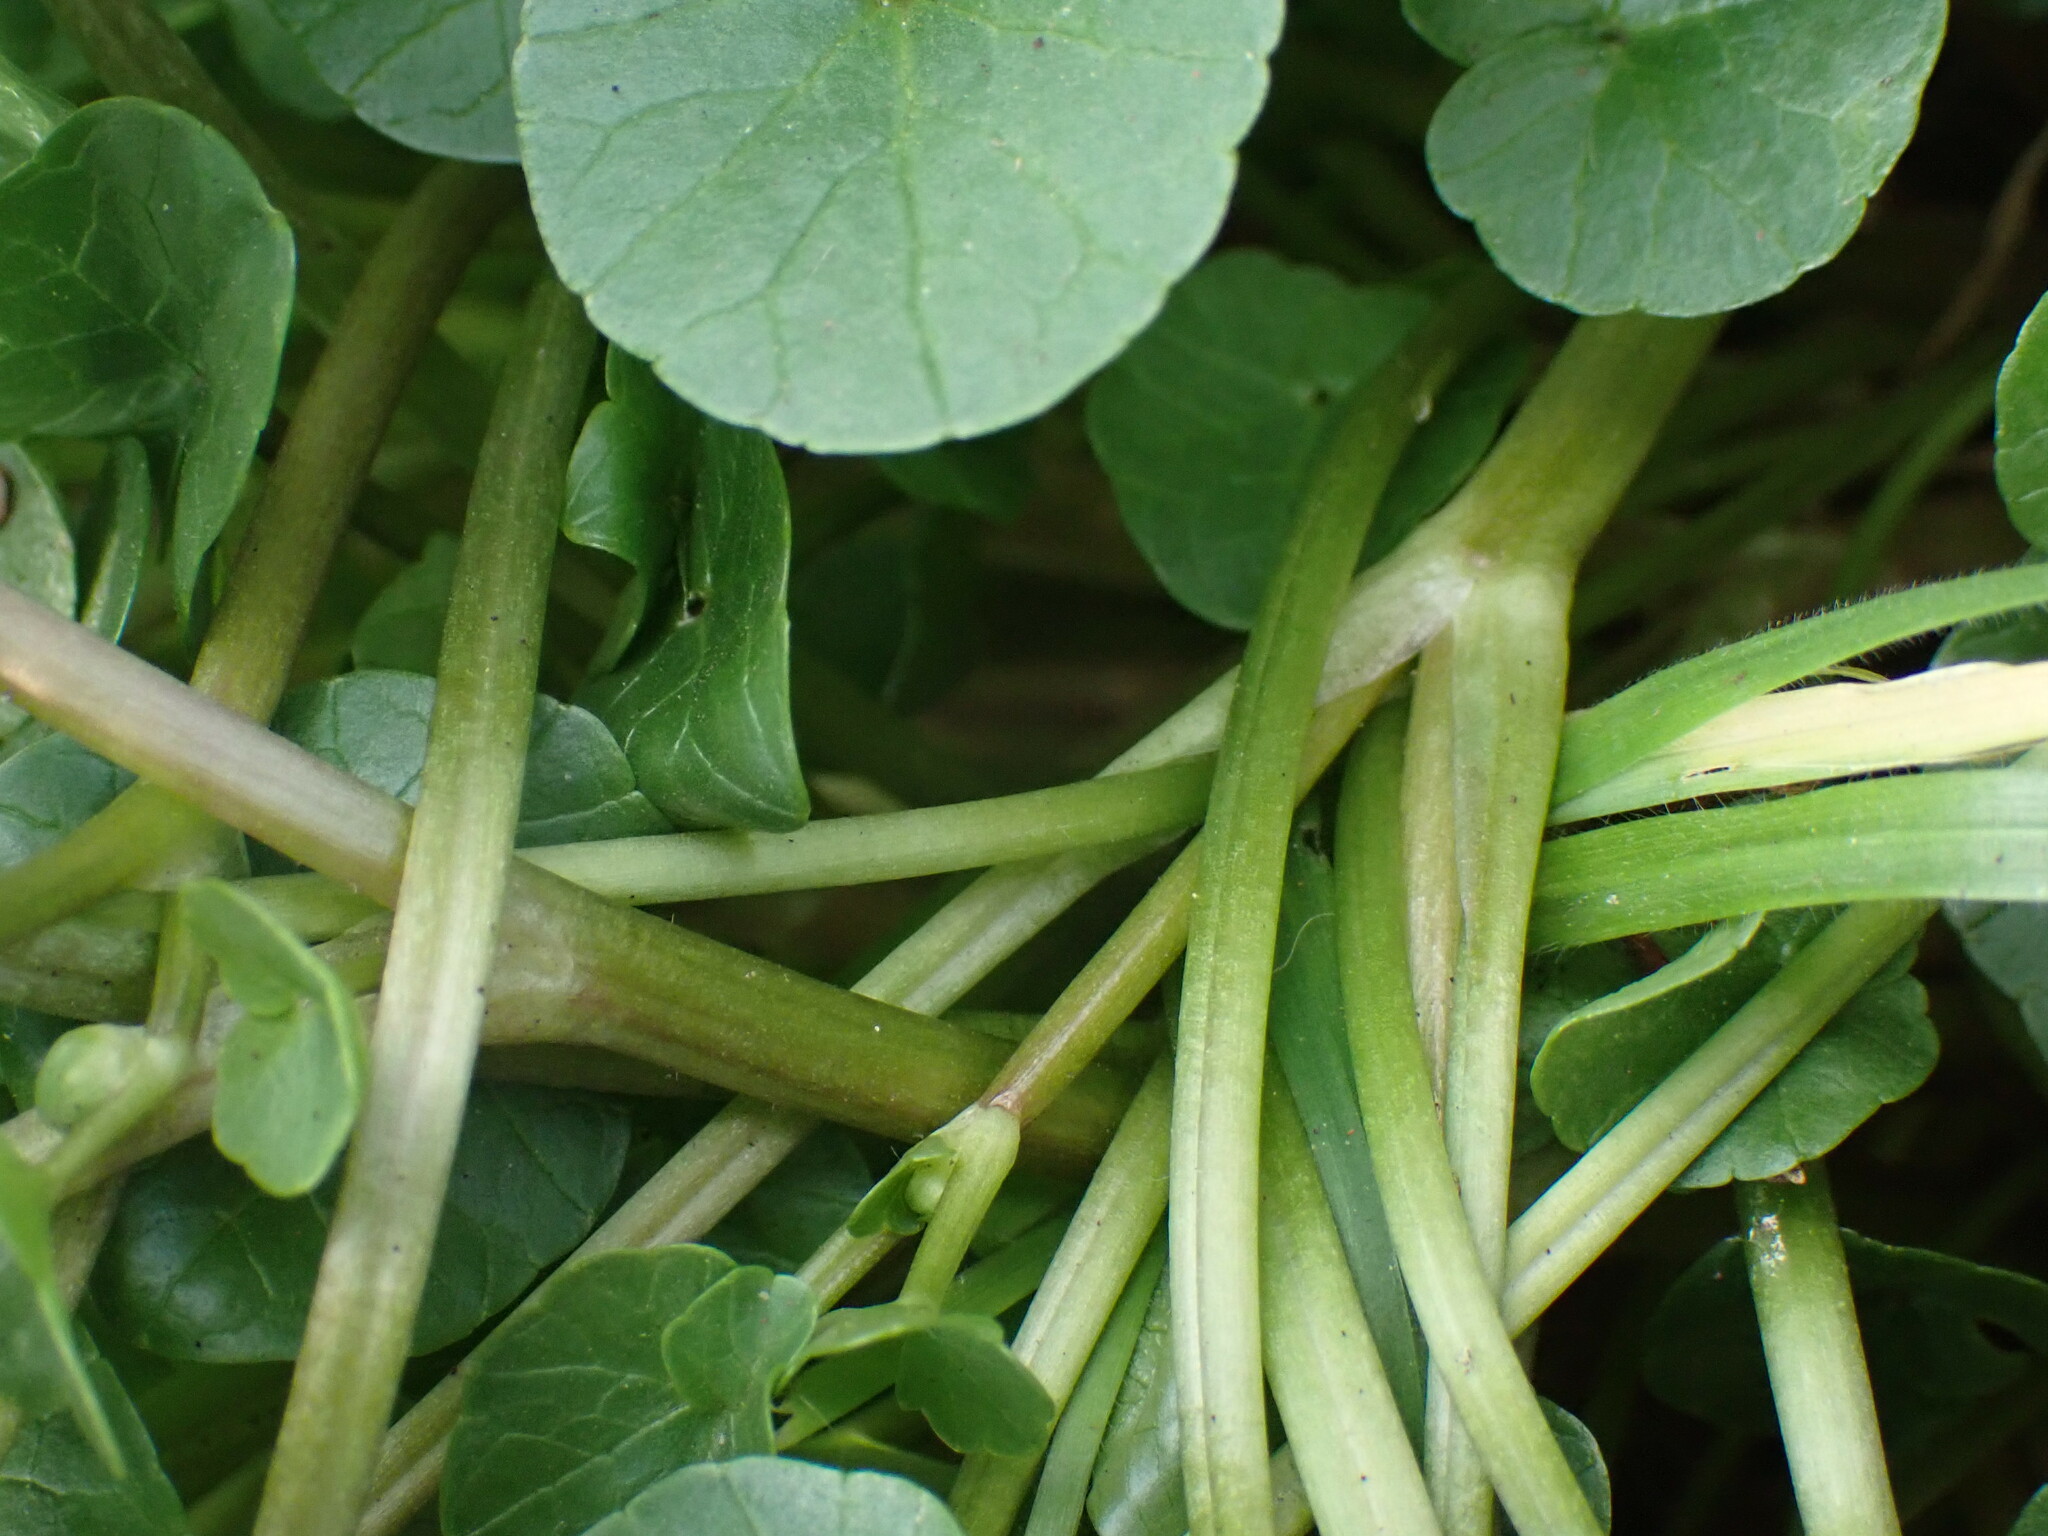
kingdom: Plantae
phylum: Tracheophyta
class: Magnoliopsida
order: Ranunculales
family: Ranunculaceae
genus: Ficaria
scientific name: Ficaria verna
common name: Lesser celandine
